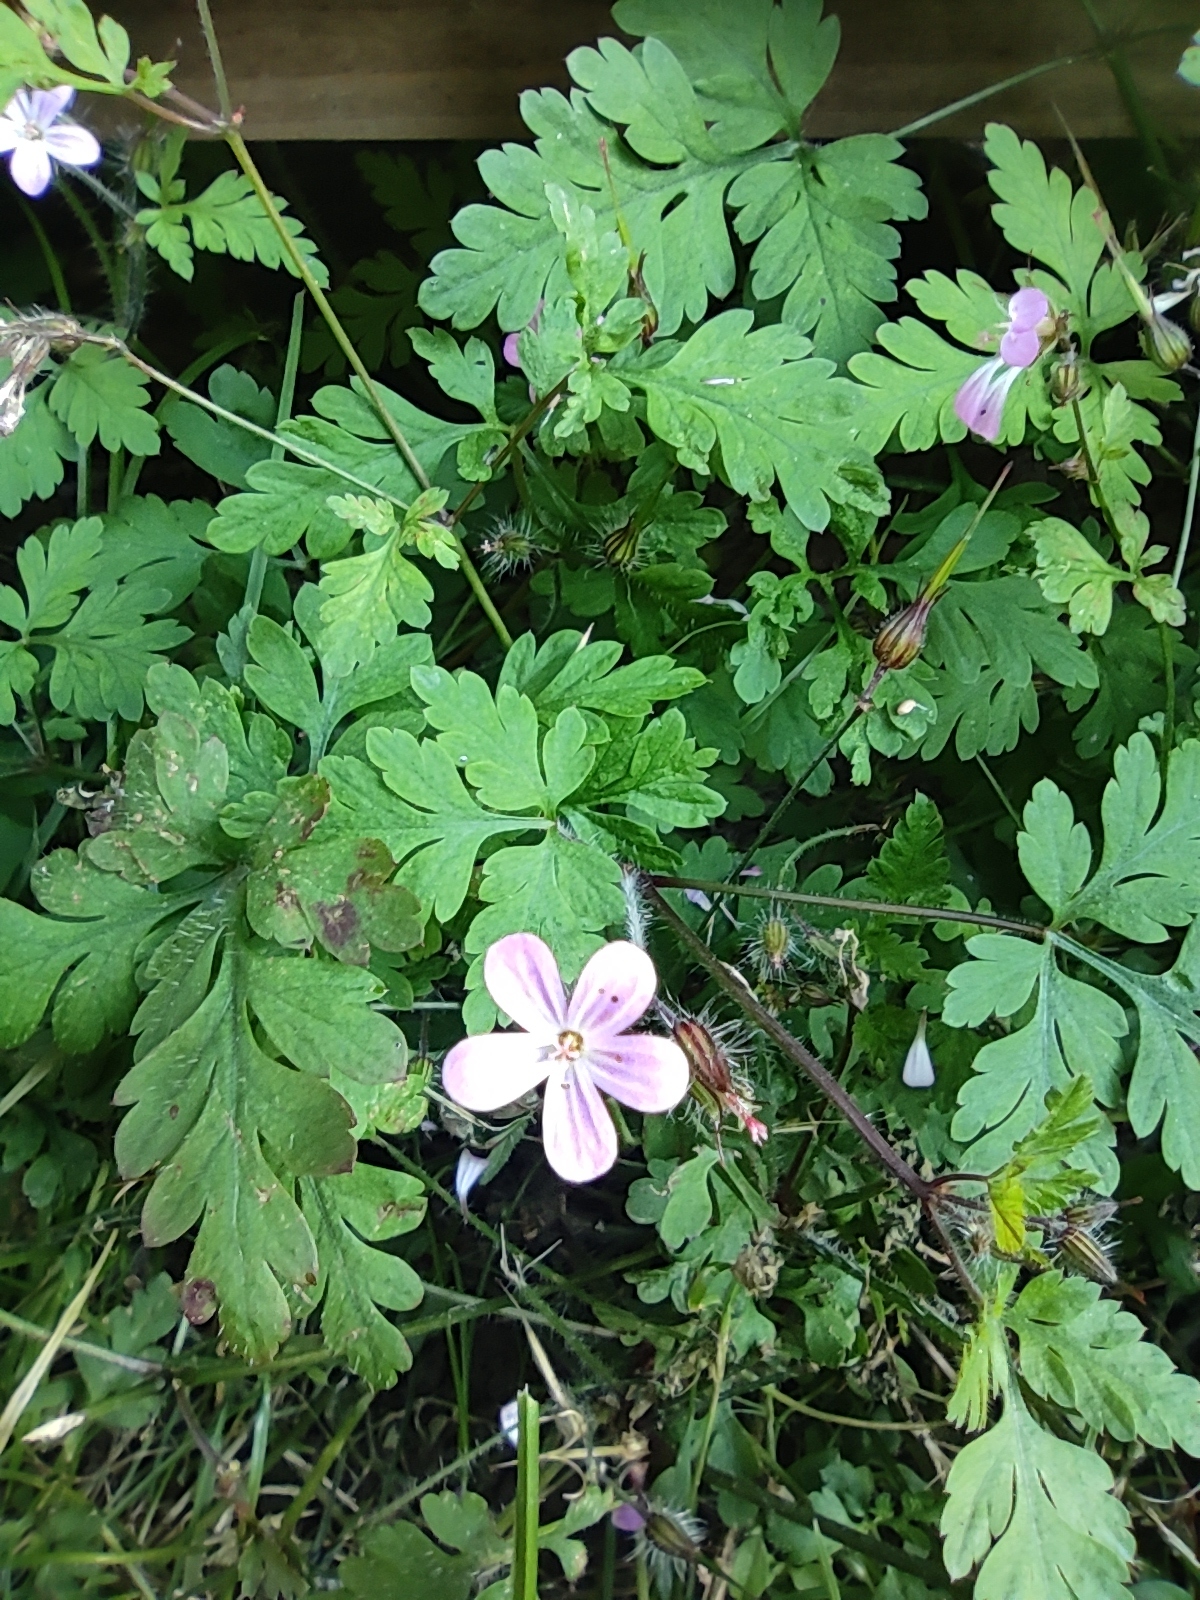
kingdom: Plantae
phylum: Tracheophyta
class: Magnoliopsida
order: Geraniales
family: Geraniaceae
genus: Geranium
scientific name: Geranium robertianum
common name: Herb-robert
